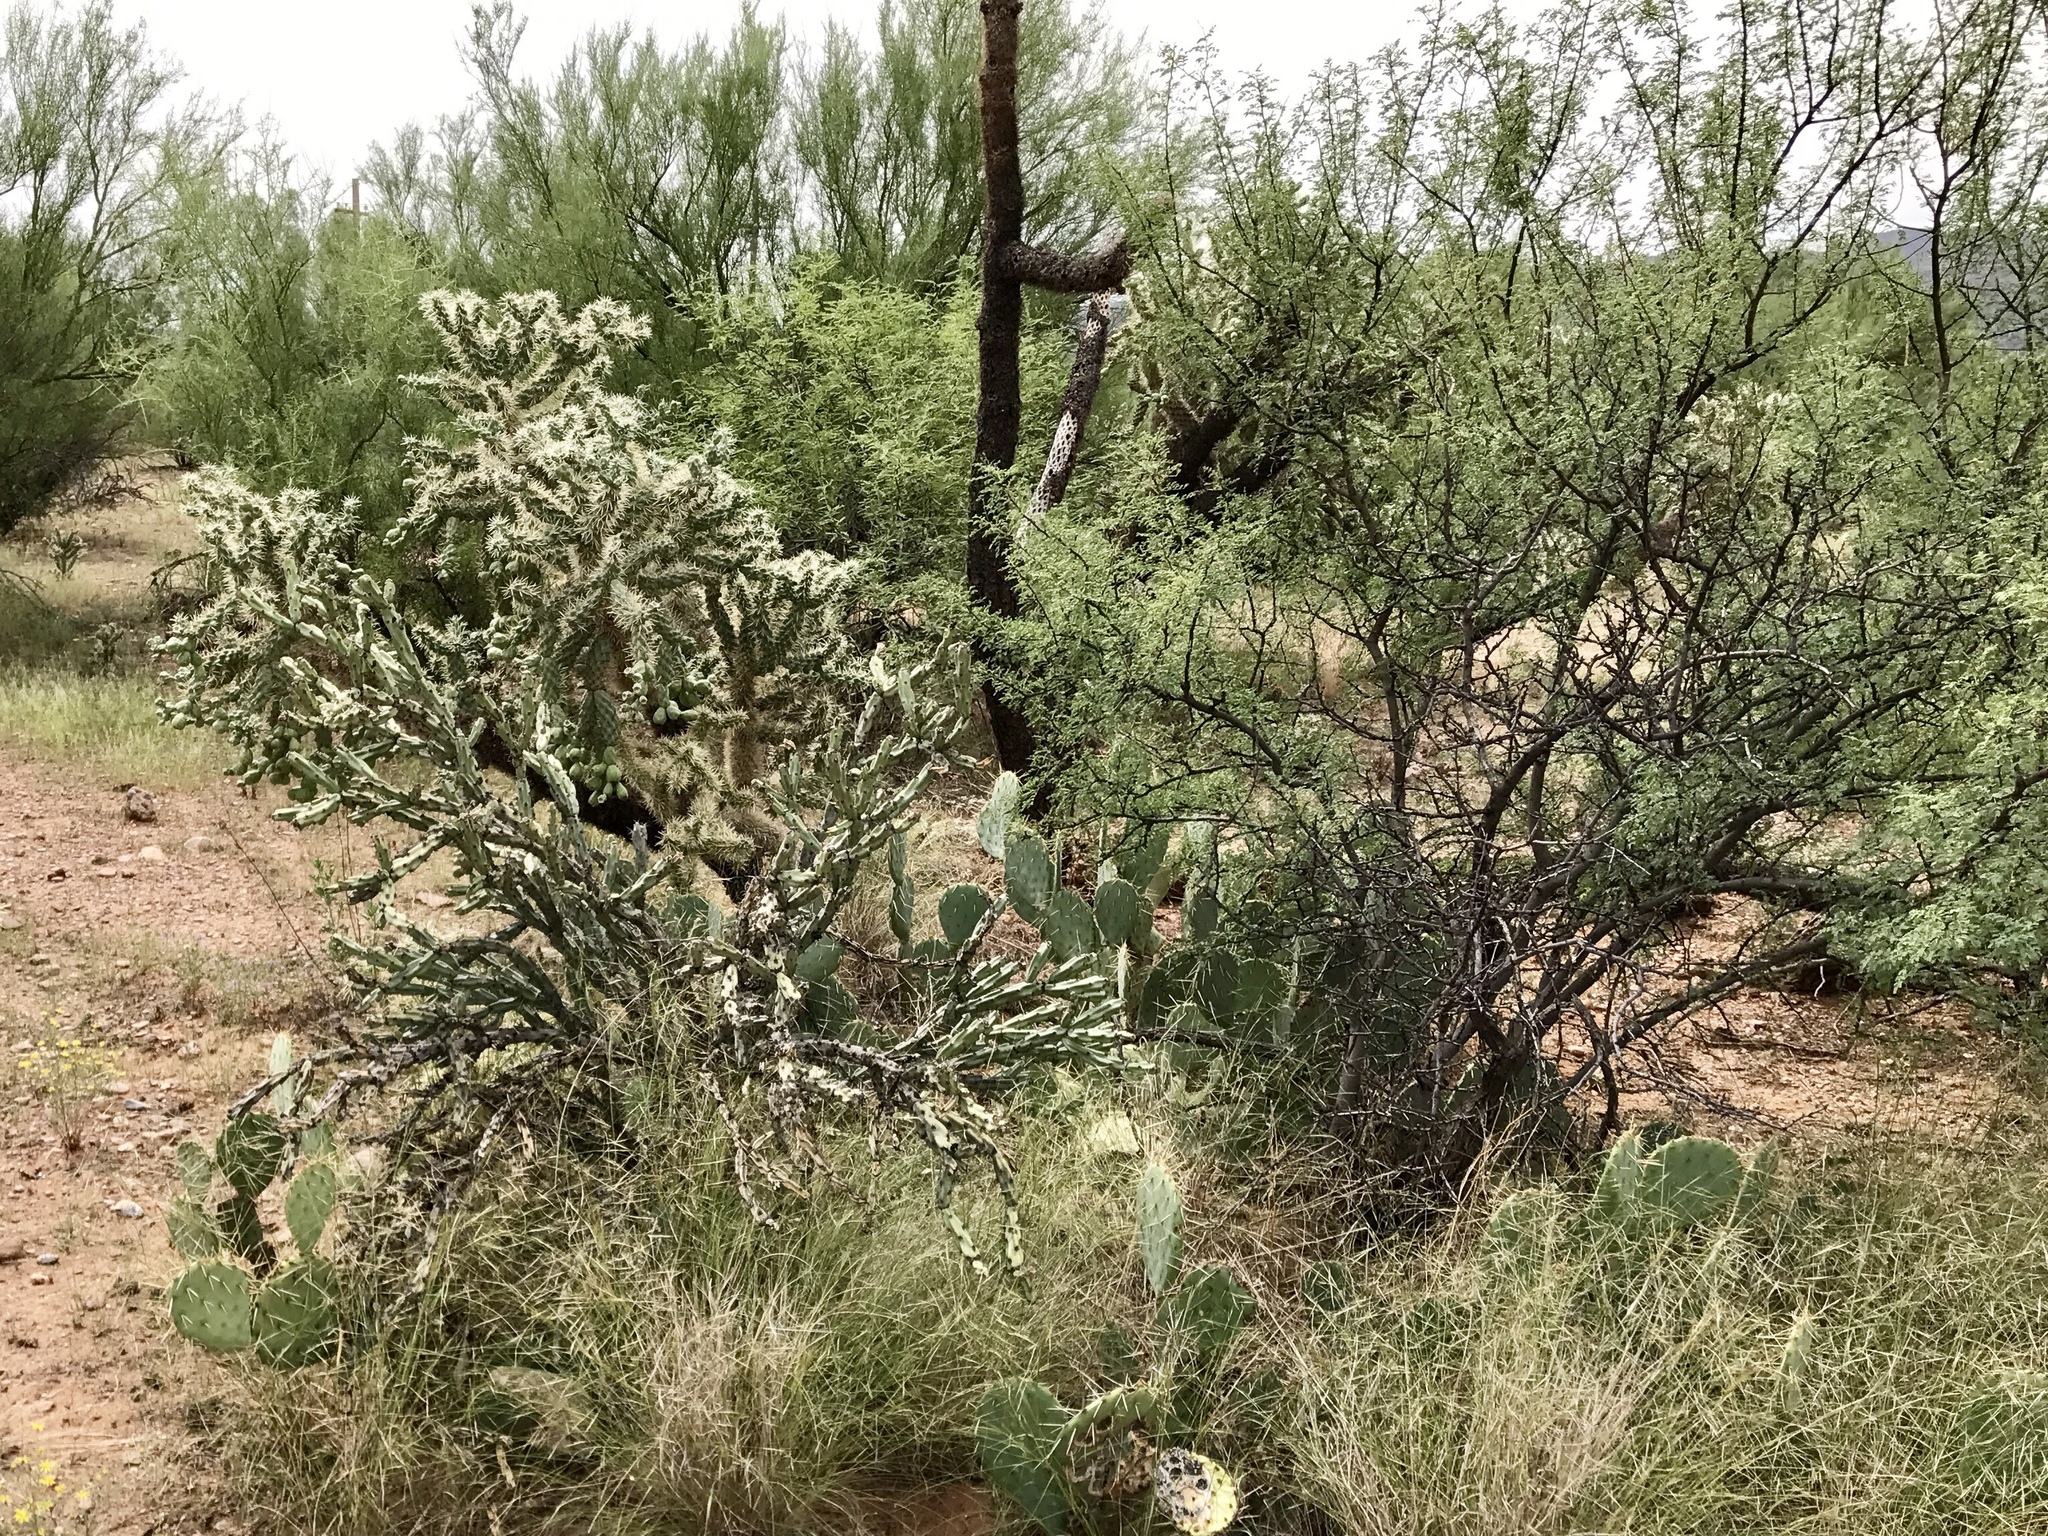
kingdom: Plantae
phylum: Tracheophyta
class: Magnoliopsida
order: Caryophyllales
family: Cactaceae
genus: Cylindropuntia
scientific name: Cylindropuntia acanthocarpa
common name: Buckhorn cholla
